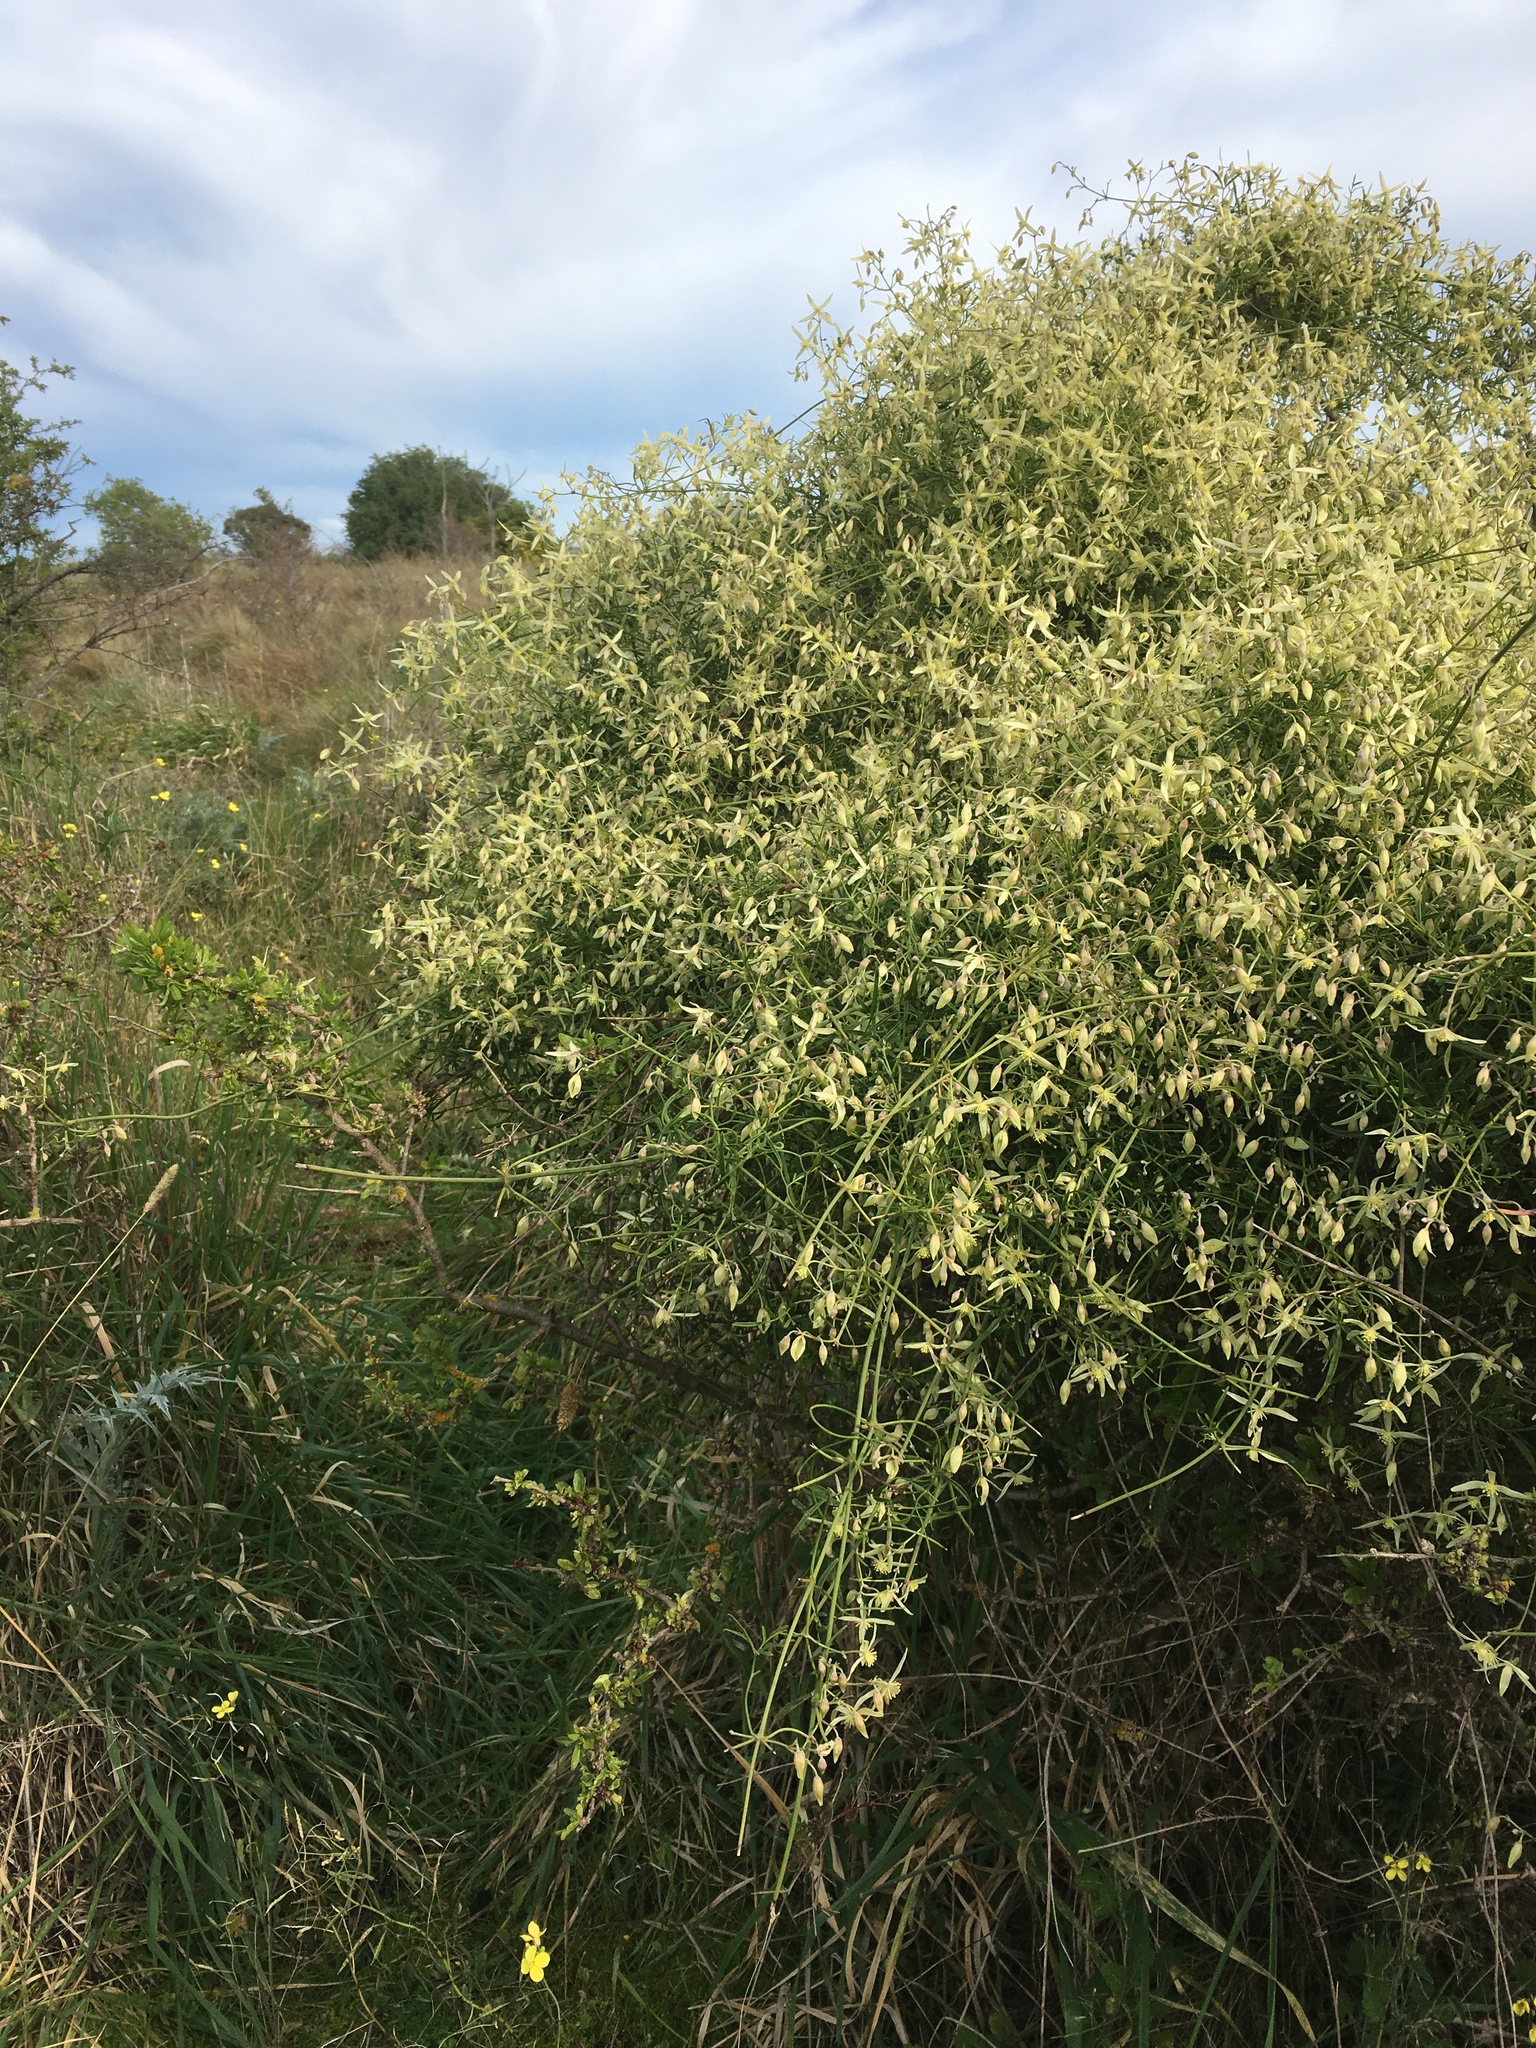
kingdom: Plantae
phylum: Tracheophyta
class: Magnoliopsida
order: Ranunculales
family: Ranunculaceae
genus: Clematis
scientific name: Clematis microphylla
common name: Headachevine
